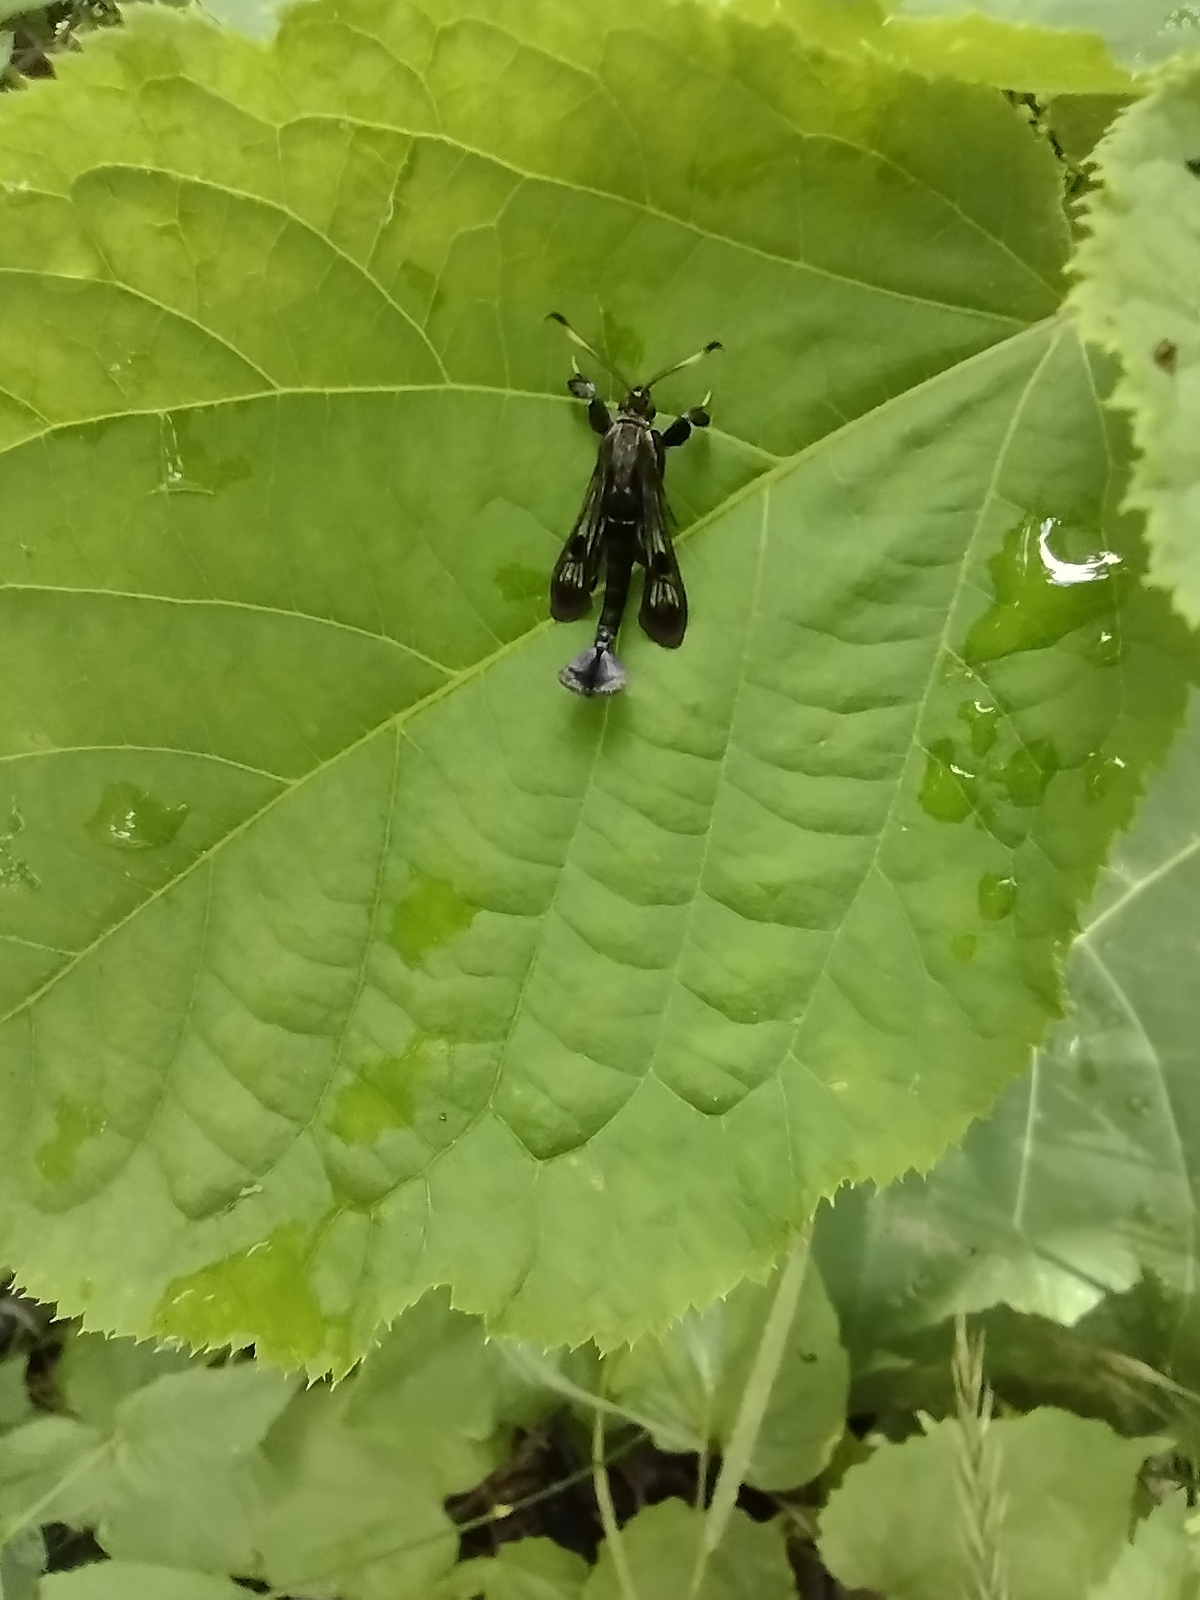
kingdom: Animalia
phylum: Arthropoda
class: Insecta
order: Lepidoptera
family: Sesiidae
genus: Albuna
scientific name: Albuna fraxini
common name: Virginia creeper clearwing
